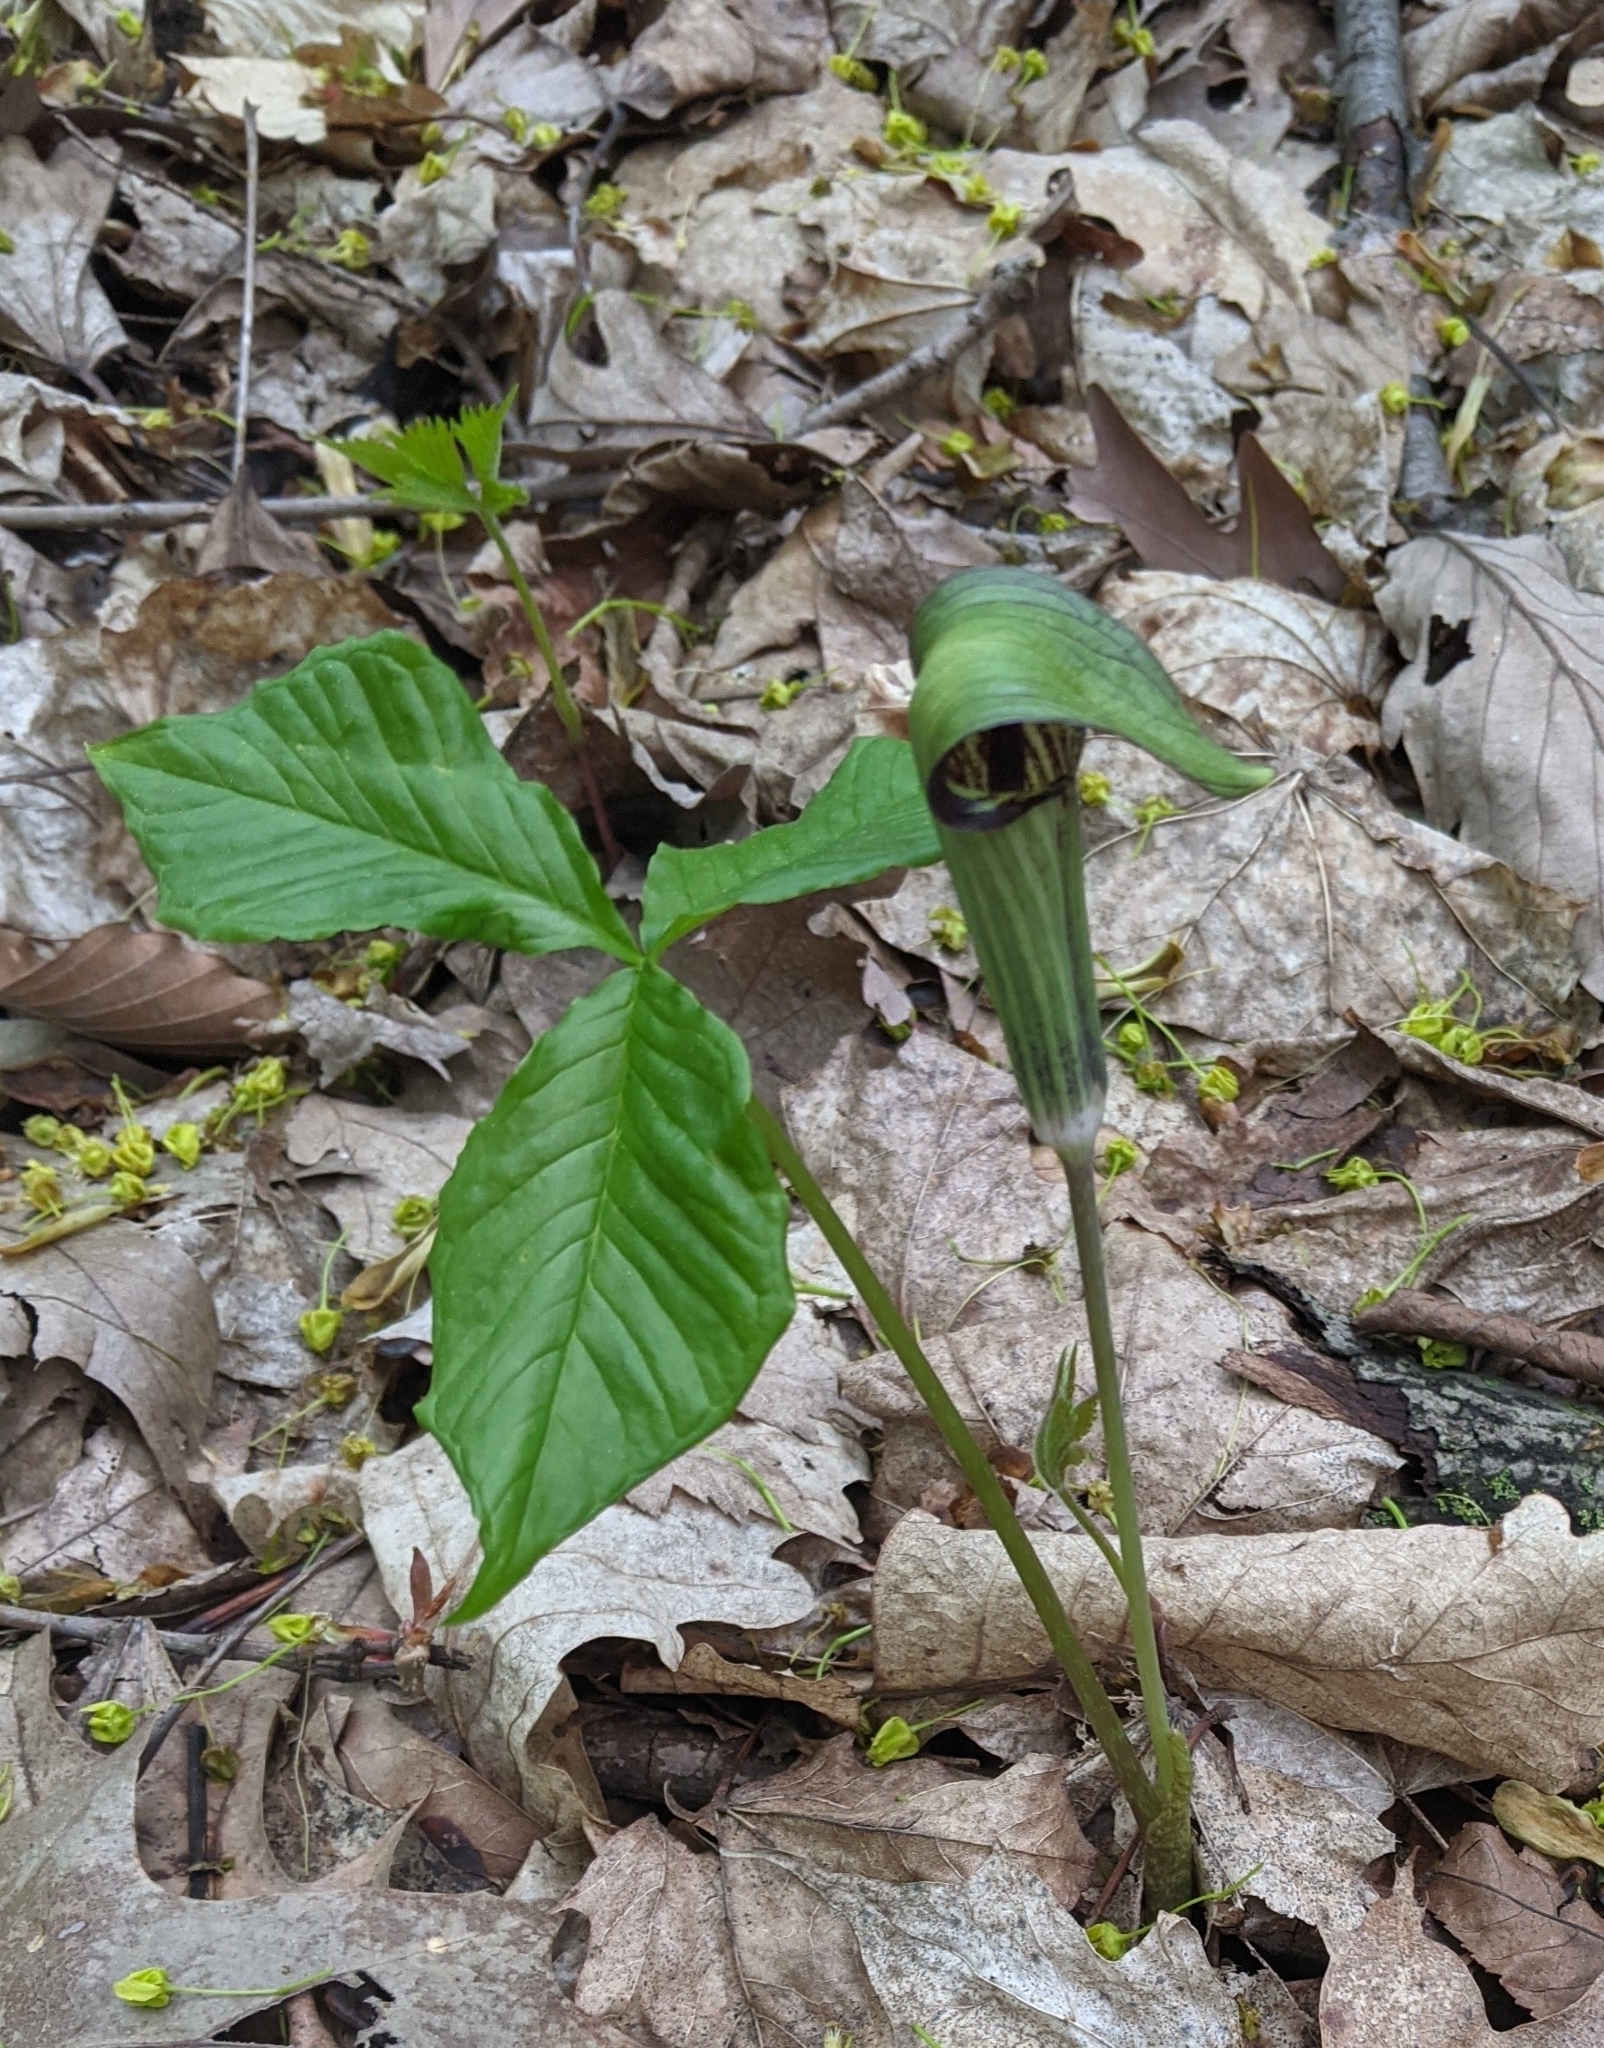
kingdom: Plantae
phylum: Tracheophyta
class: Liliopsida
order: Alismatales
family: Araceae
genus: Arisaema
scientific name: Arisaema triphyllum
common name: Jack-in-the-pulpit
